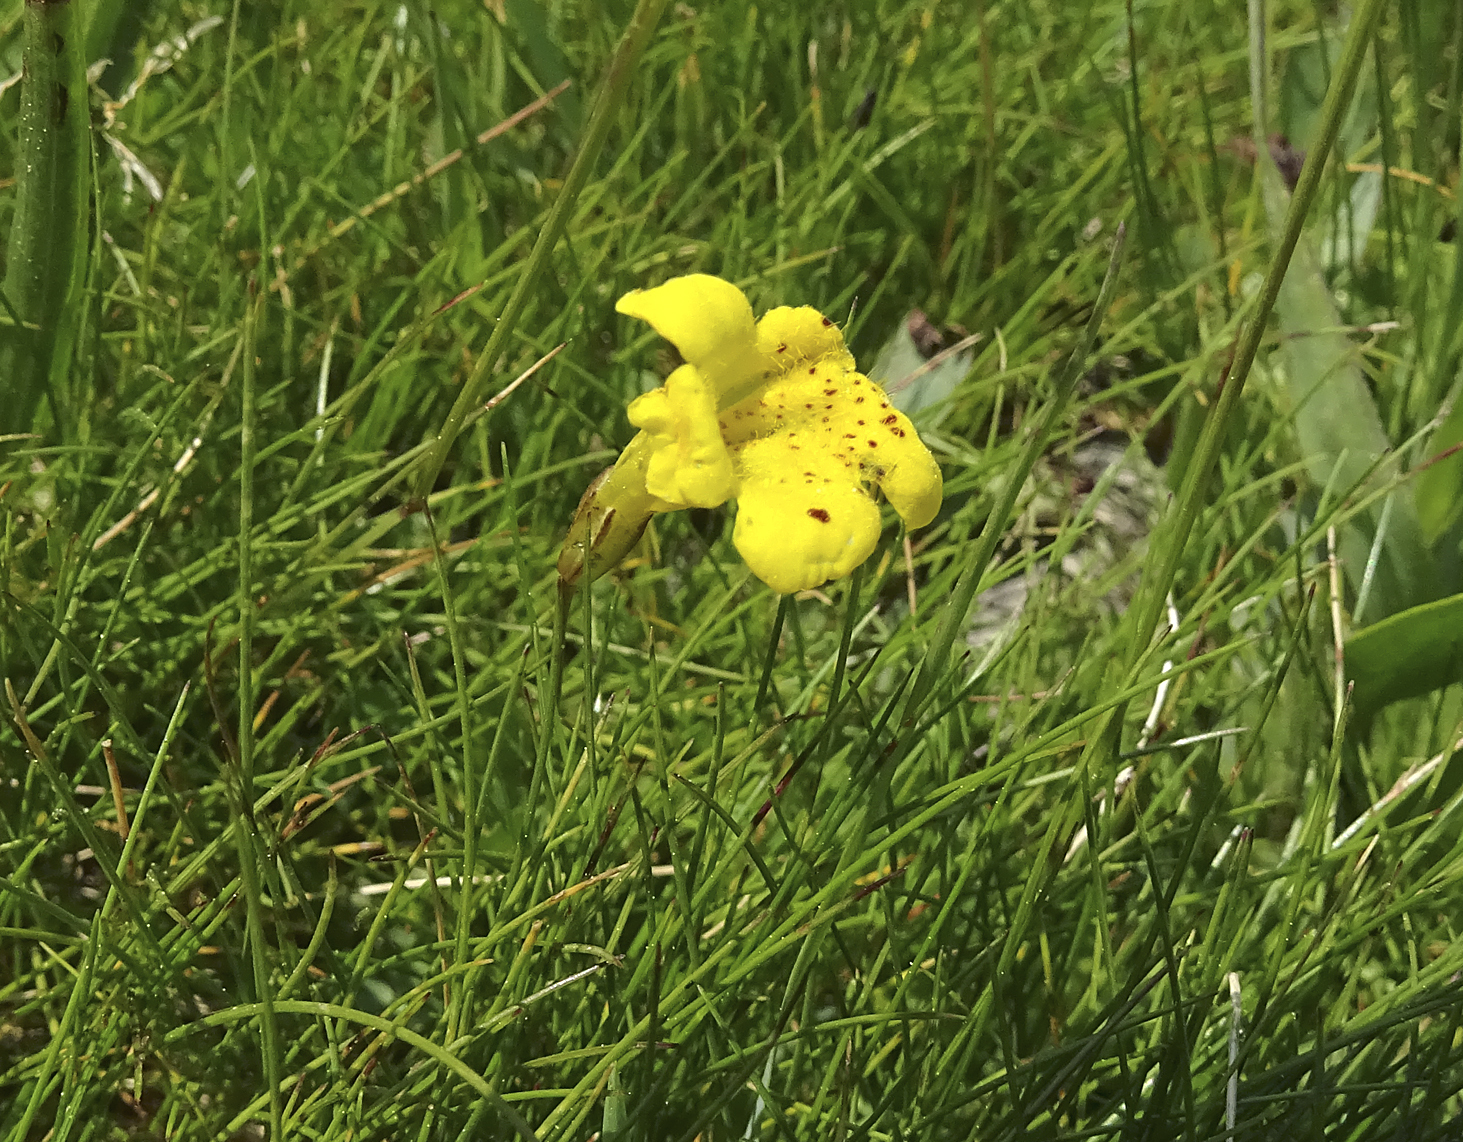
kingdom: Plantae
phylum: Tracheophyta
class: Magnoliopsida
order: Lamiales
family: Phrymaceae
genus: Erythranthe
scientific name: Erythranthe primuloides
